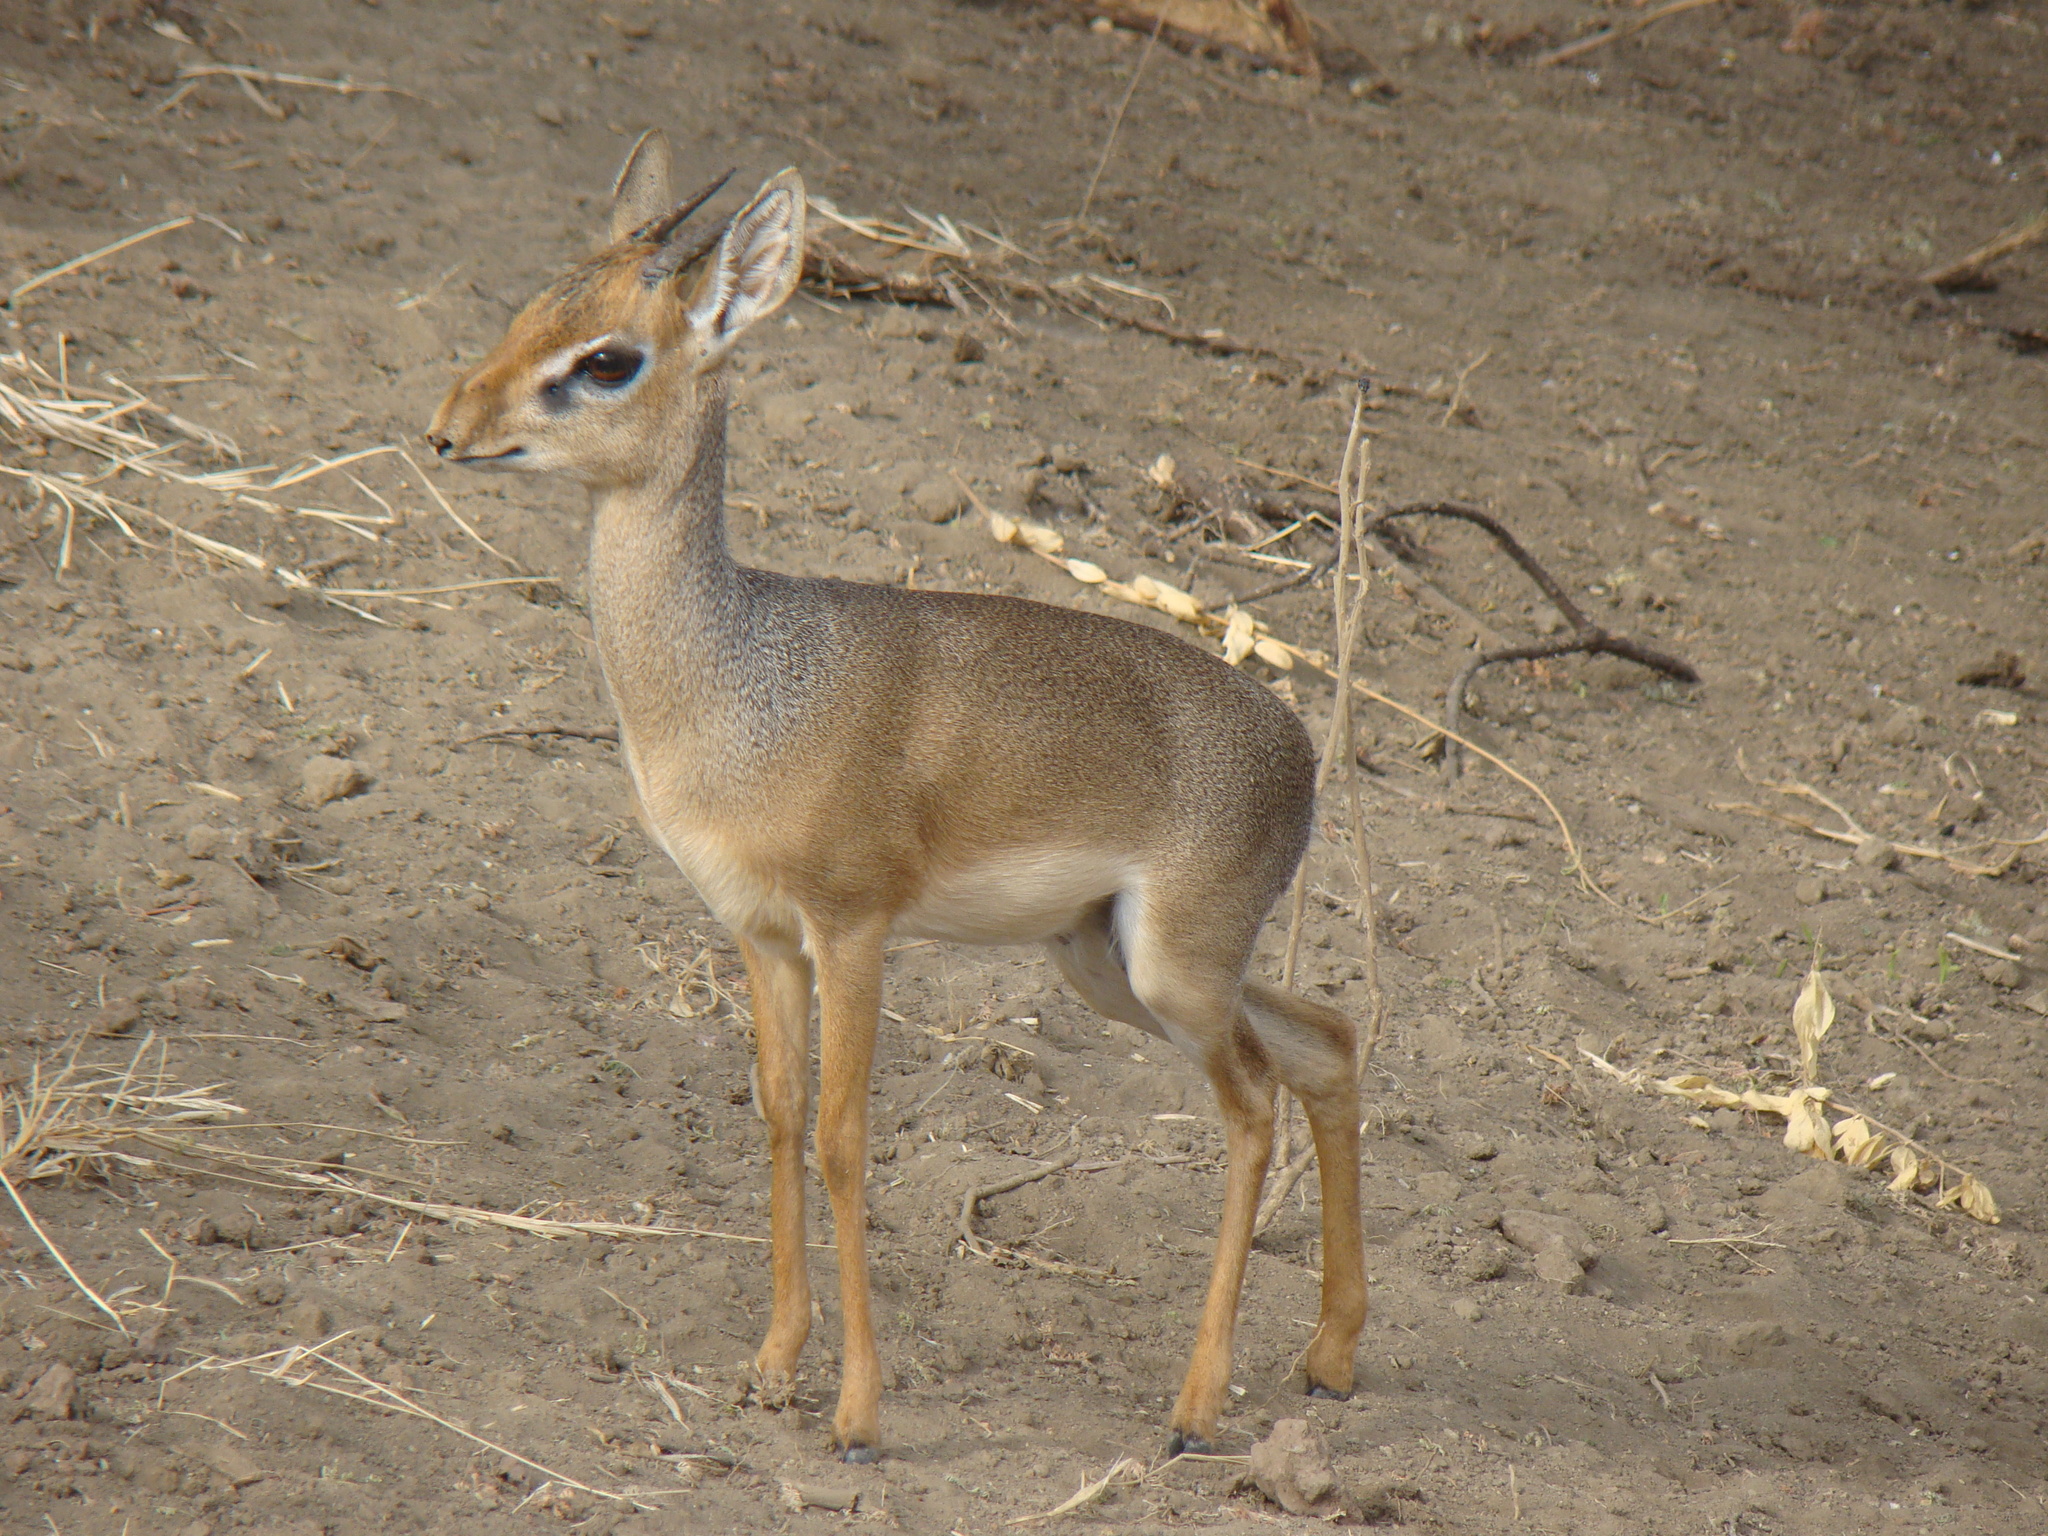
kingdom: Animalia
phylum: Chordata
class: Mammalia
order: Artiodactyla
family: Bovidae
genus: Madoqua
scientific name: Madoqua
